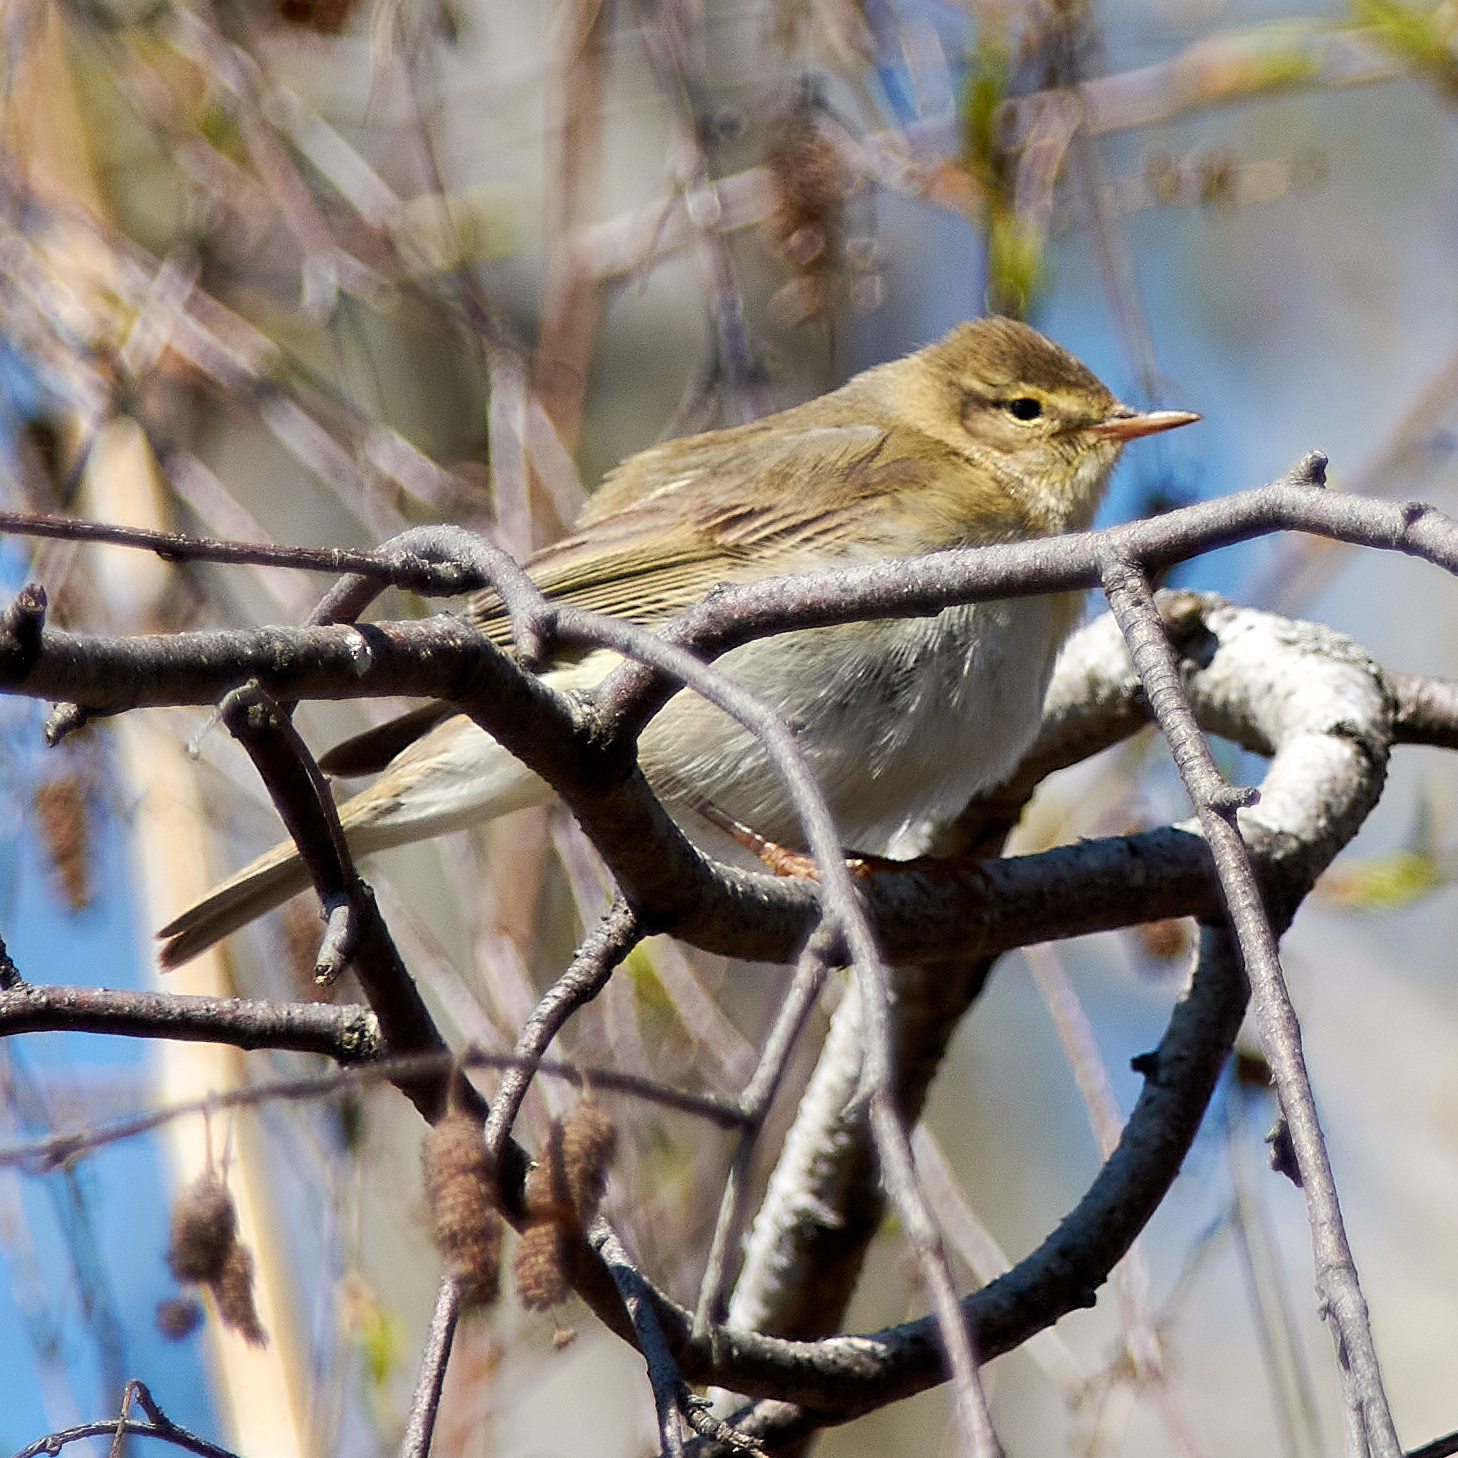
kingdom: Animalia
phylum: Chordata
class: Aves
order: Passeriformes
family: Phylloscopidae
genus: Phylloscopus
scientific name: Phylloscopus trochilus
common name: Willow warbler
